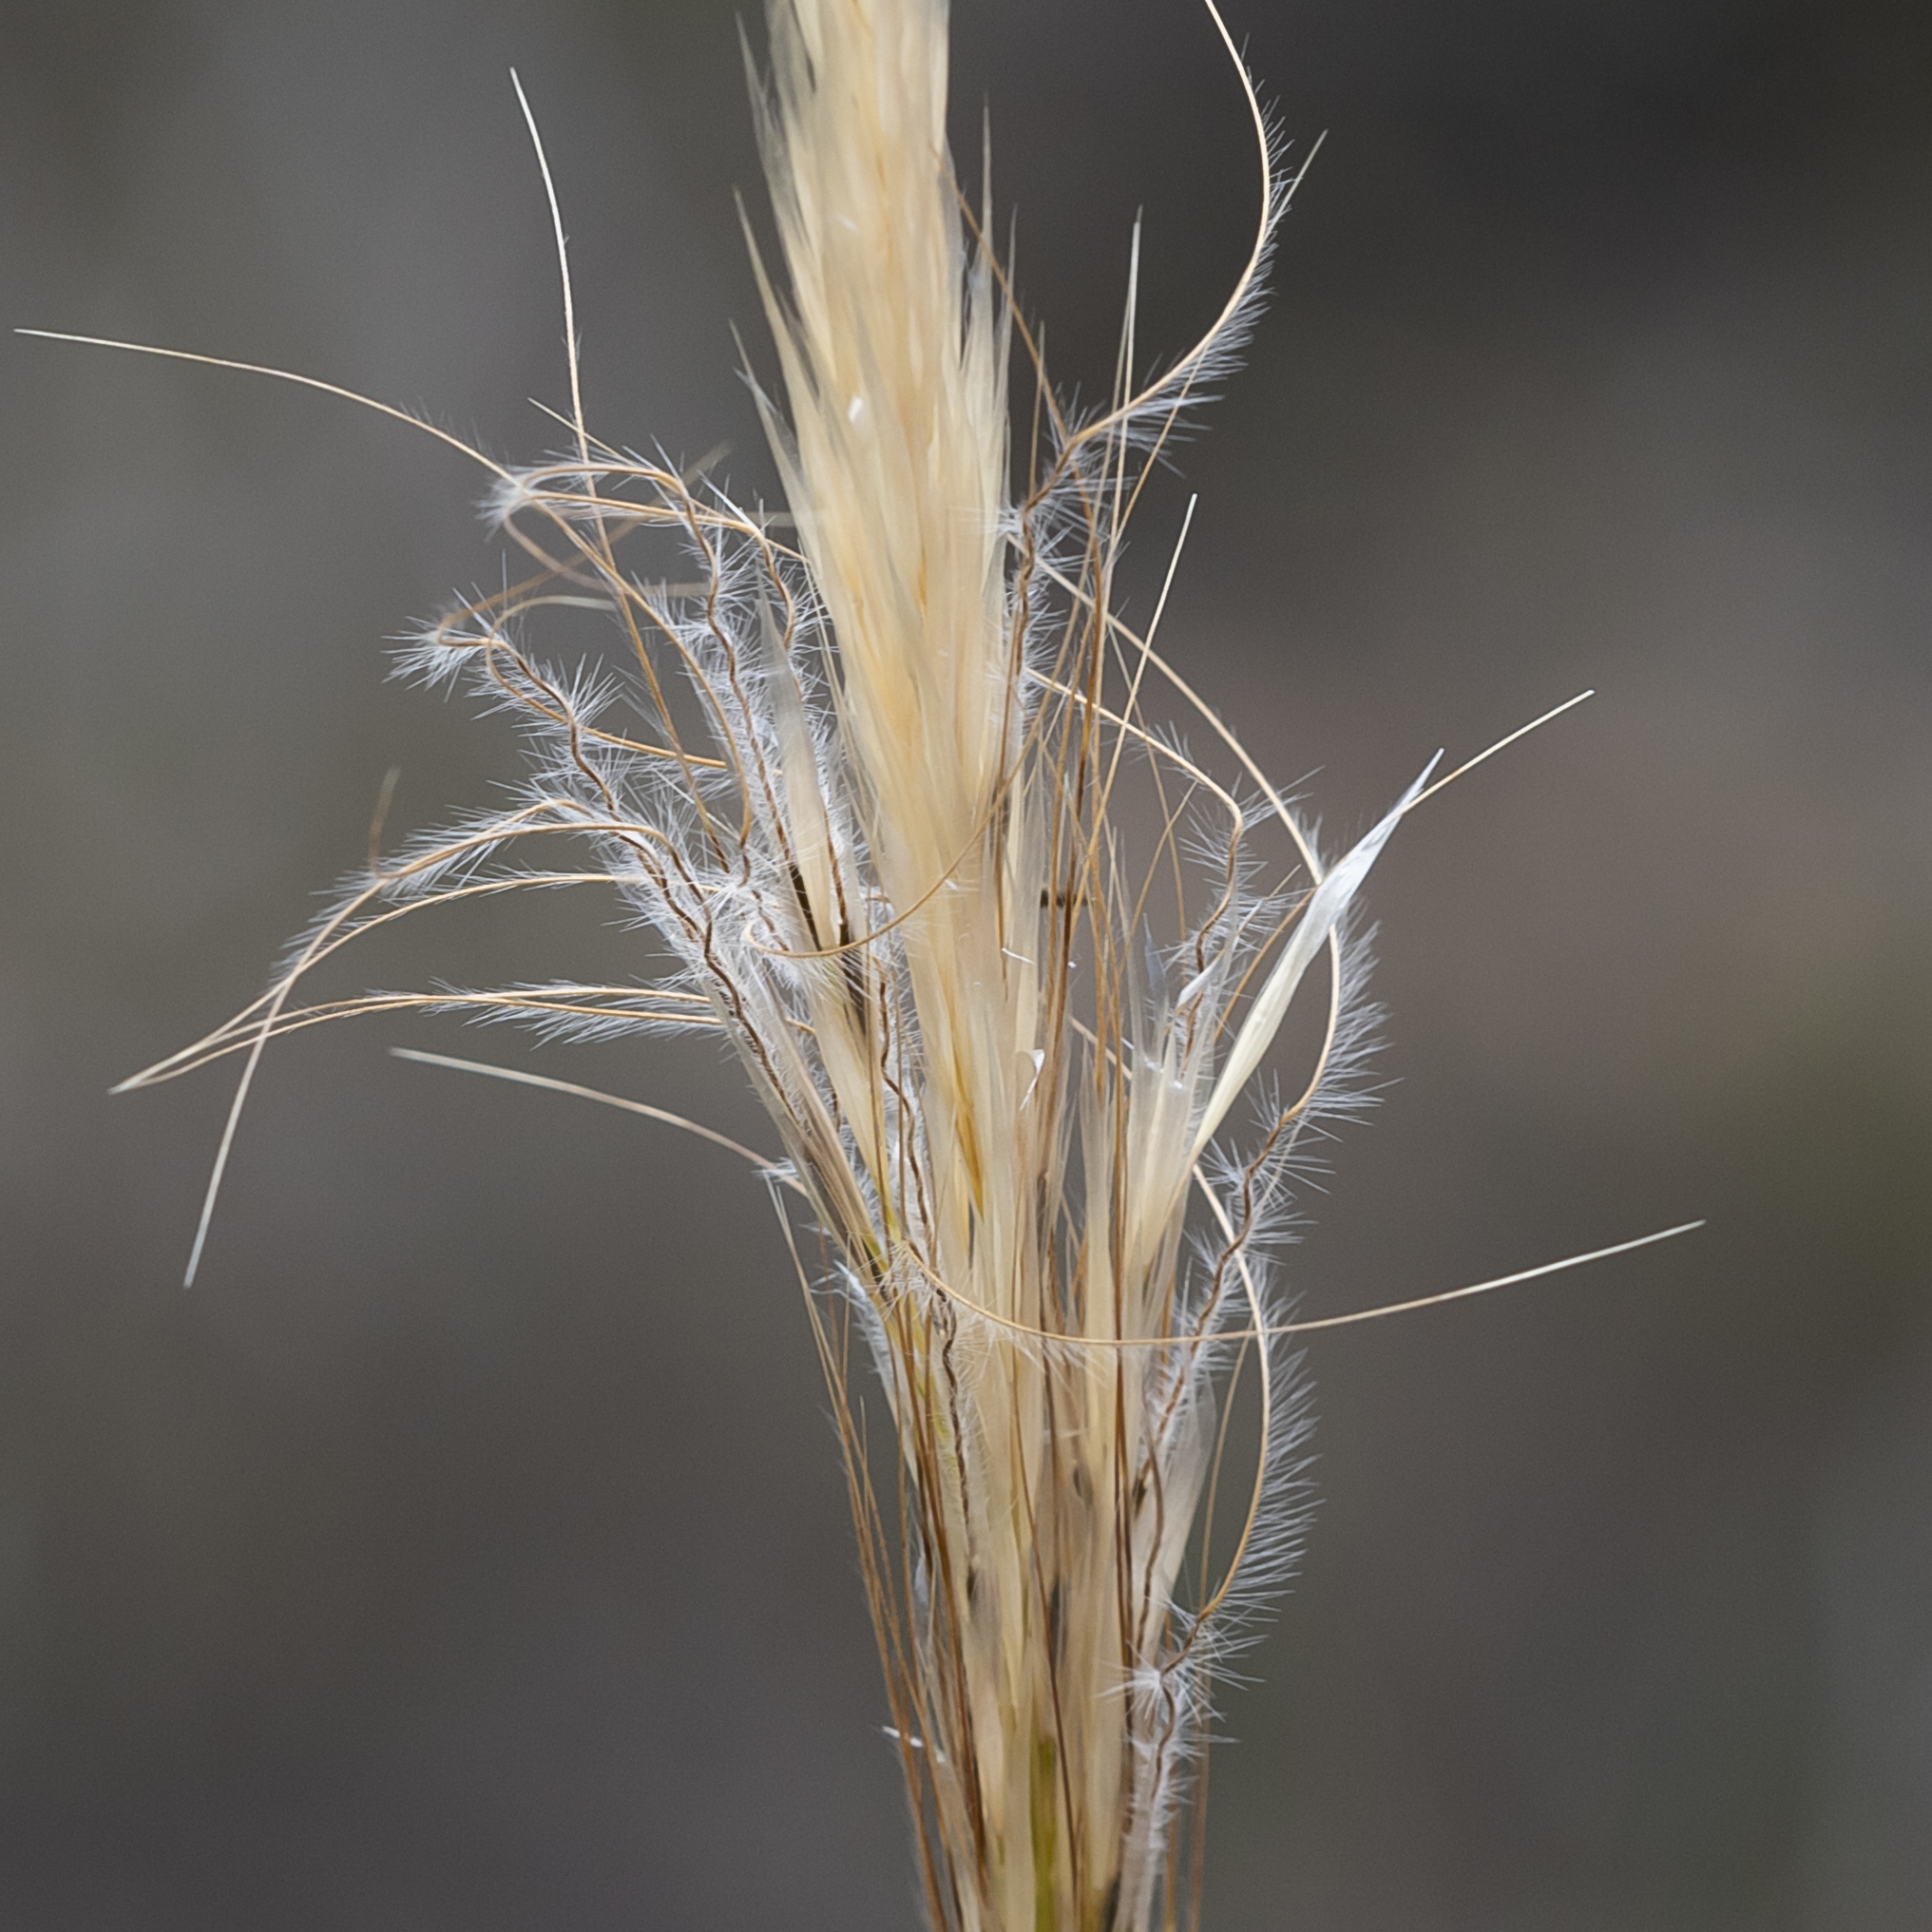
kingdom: Plantae
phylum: Tracheophyta
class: Liliopsida
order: Poales
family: Poaceae
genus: Austrostipa
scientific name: Austrostipa mollis
